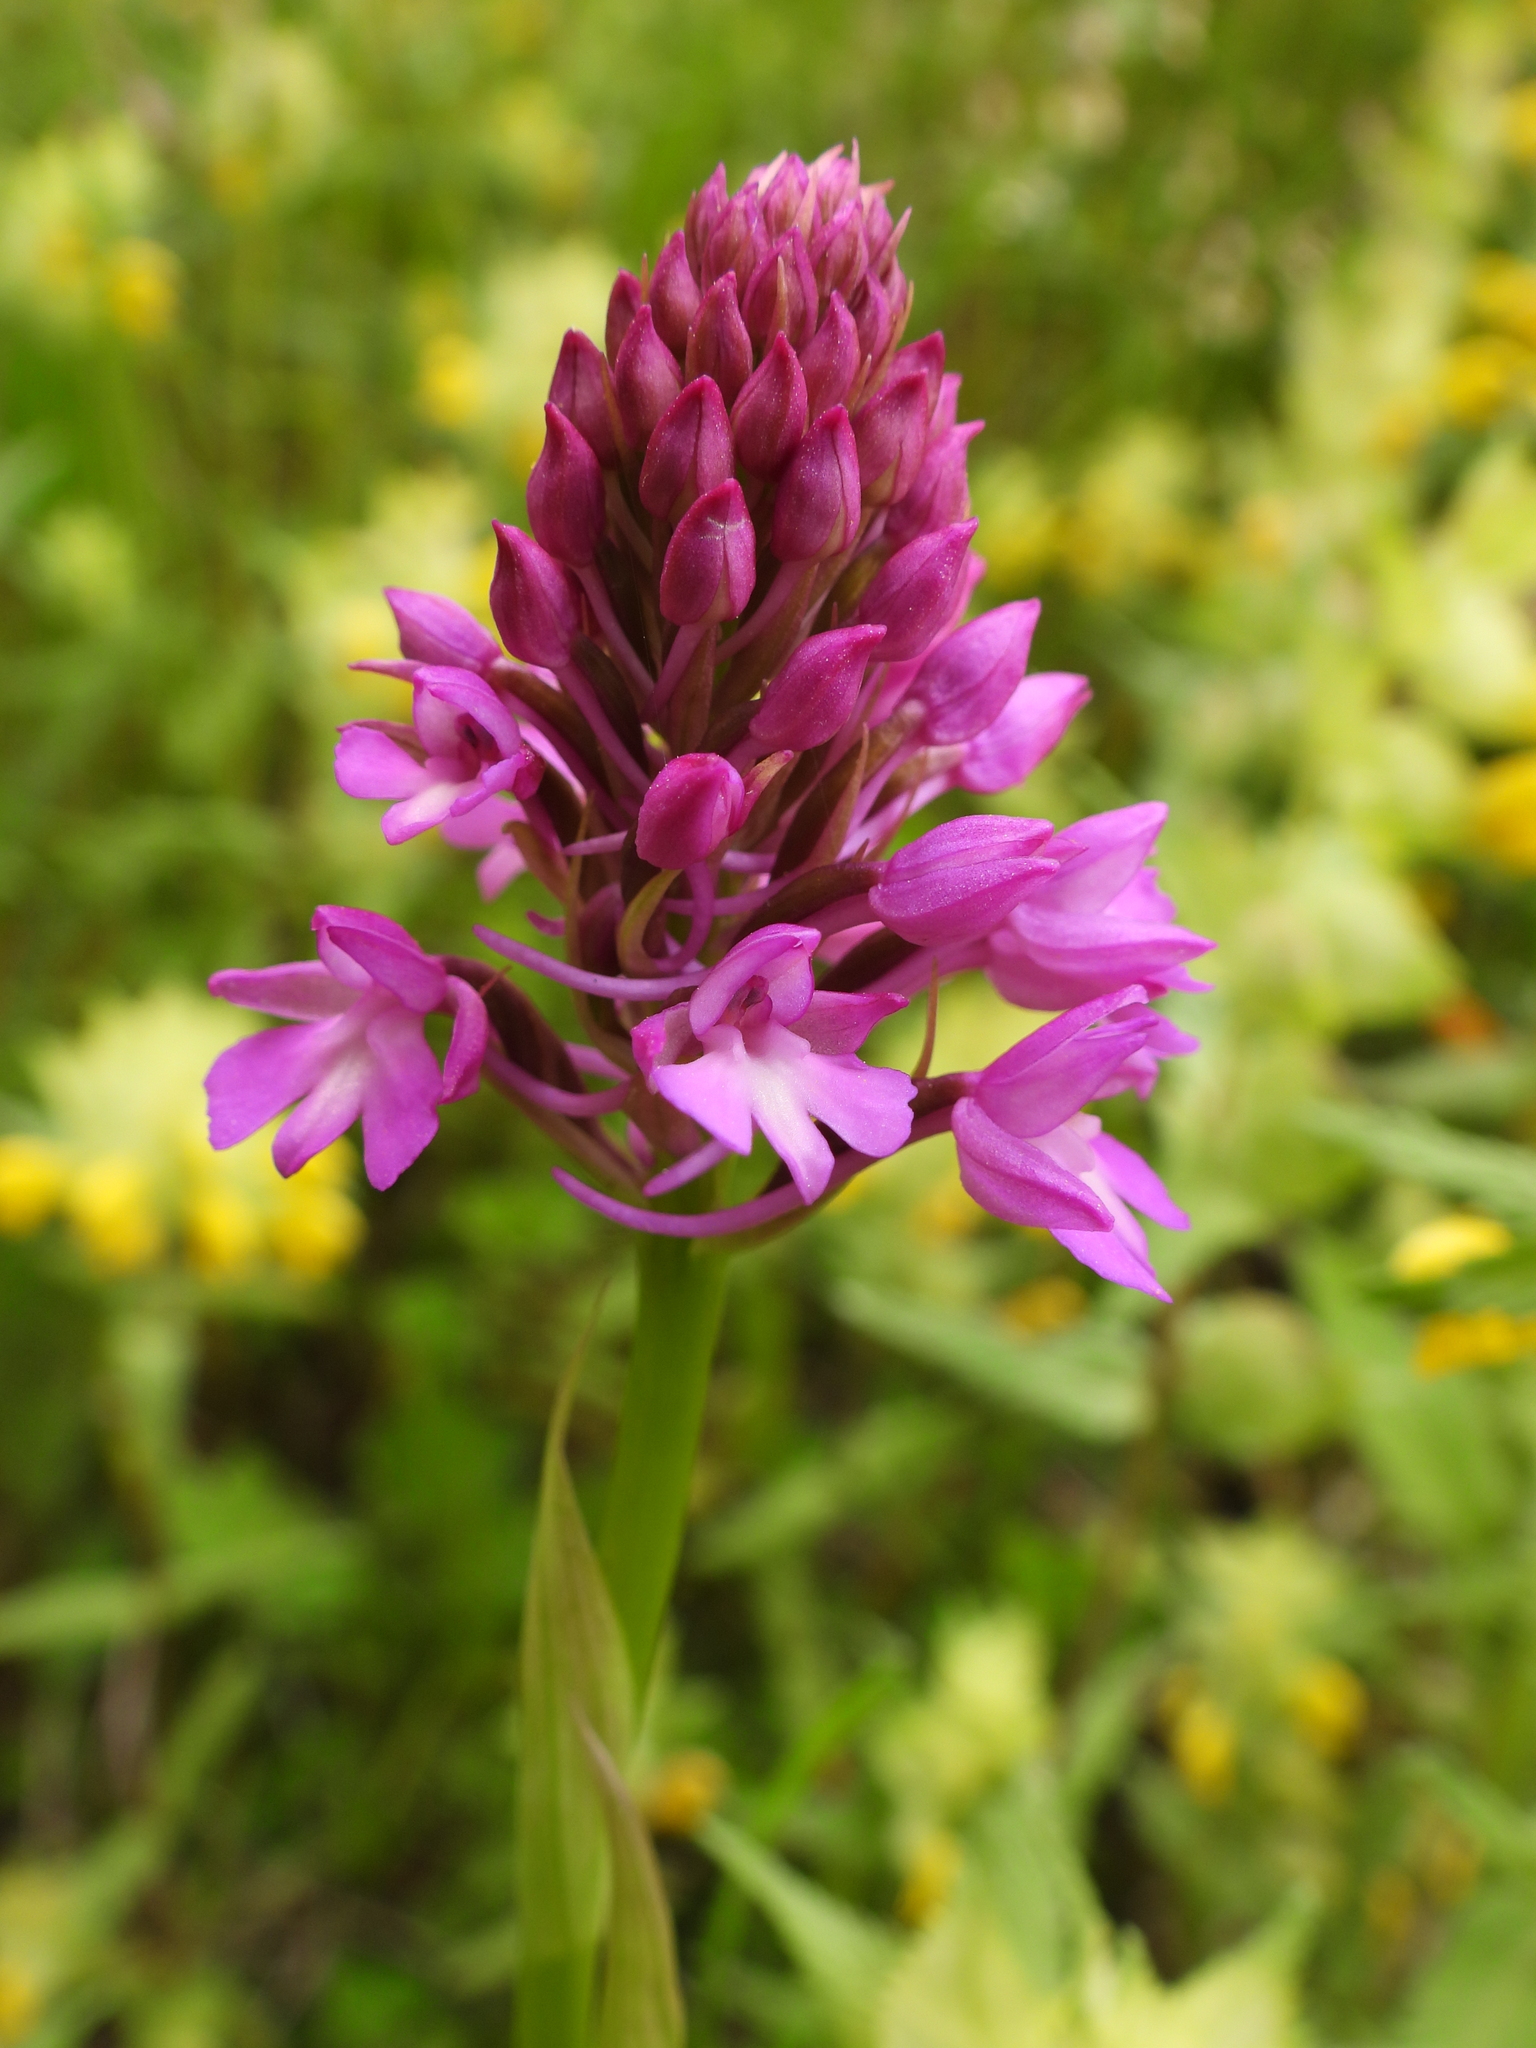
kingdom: Plantae
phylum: Tracheophyta
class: Liliopsida
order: Asparagales
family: Orchidaceae
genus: Anacamptis
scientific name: Anacamptis pyramidalis
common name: Pyramidal orchid
